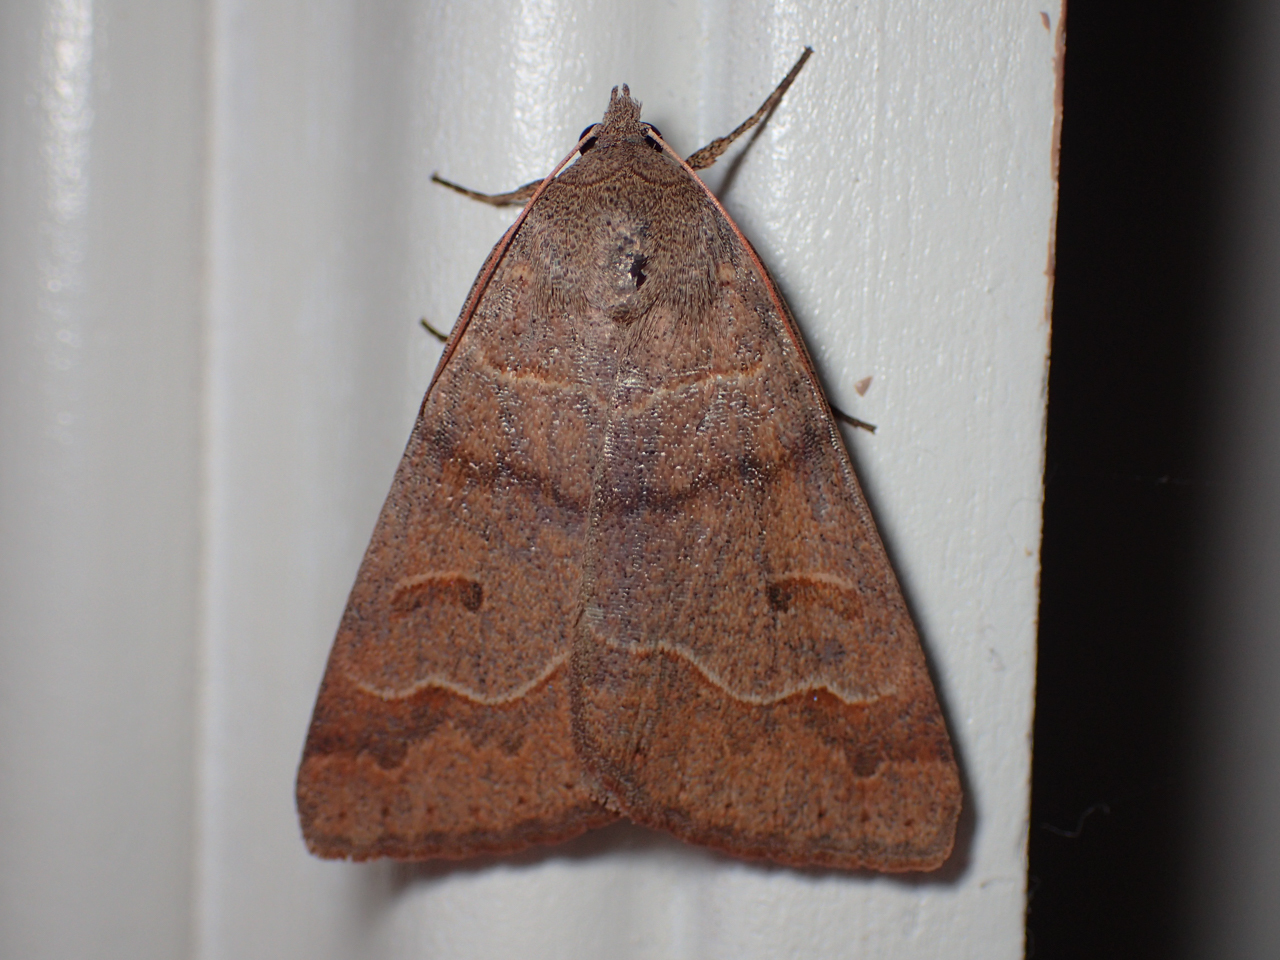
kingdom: Animalia
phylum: Arthropoda
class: Insecta
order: Lepidoptera
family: Erebidae
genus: Phoberia
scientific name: Phoberia atomaris
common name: Common oak moth
